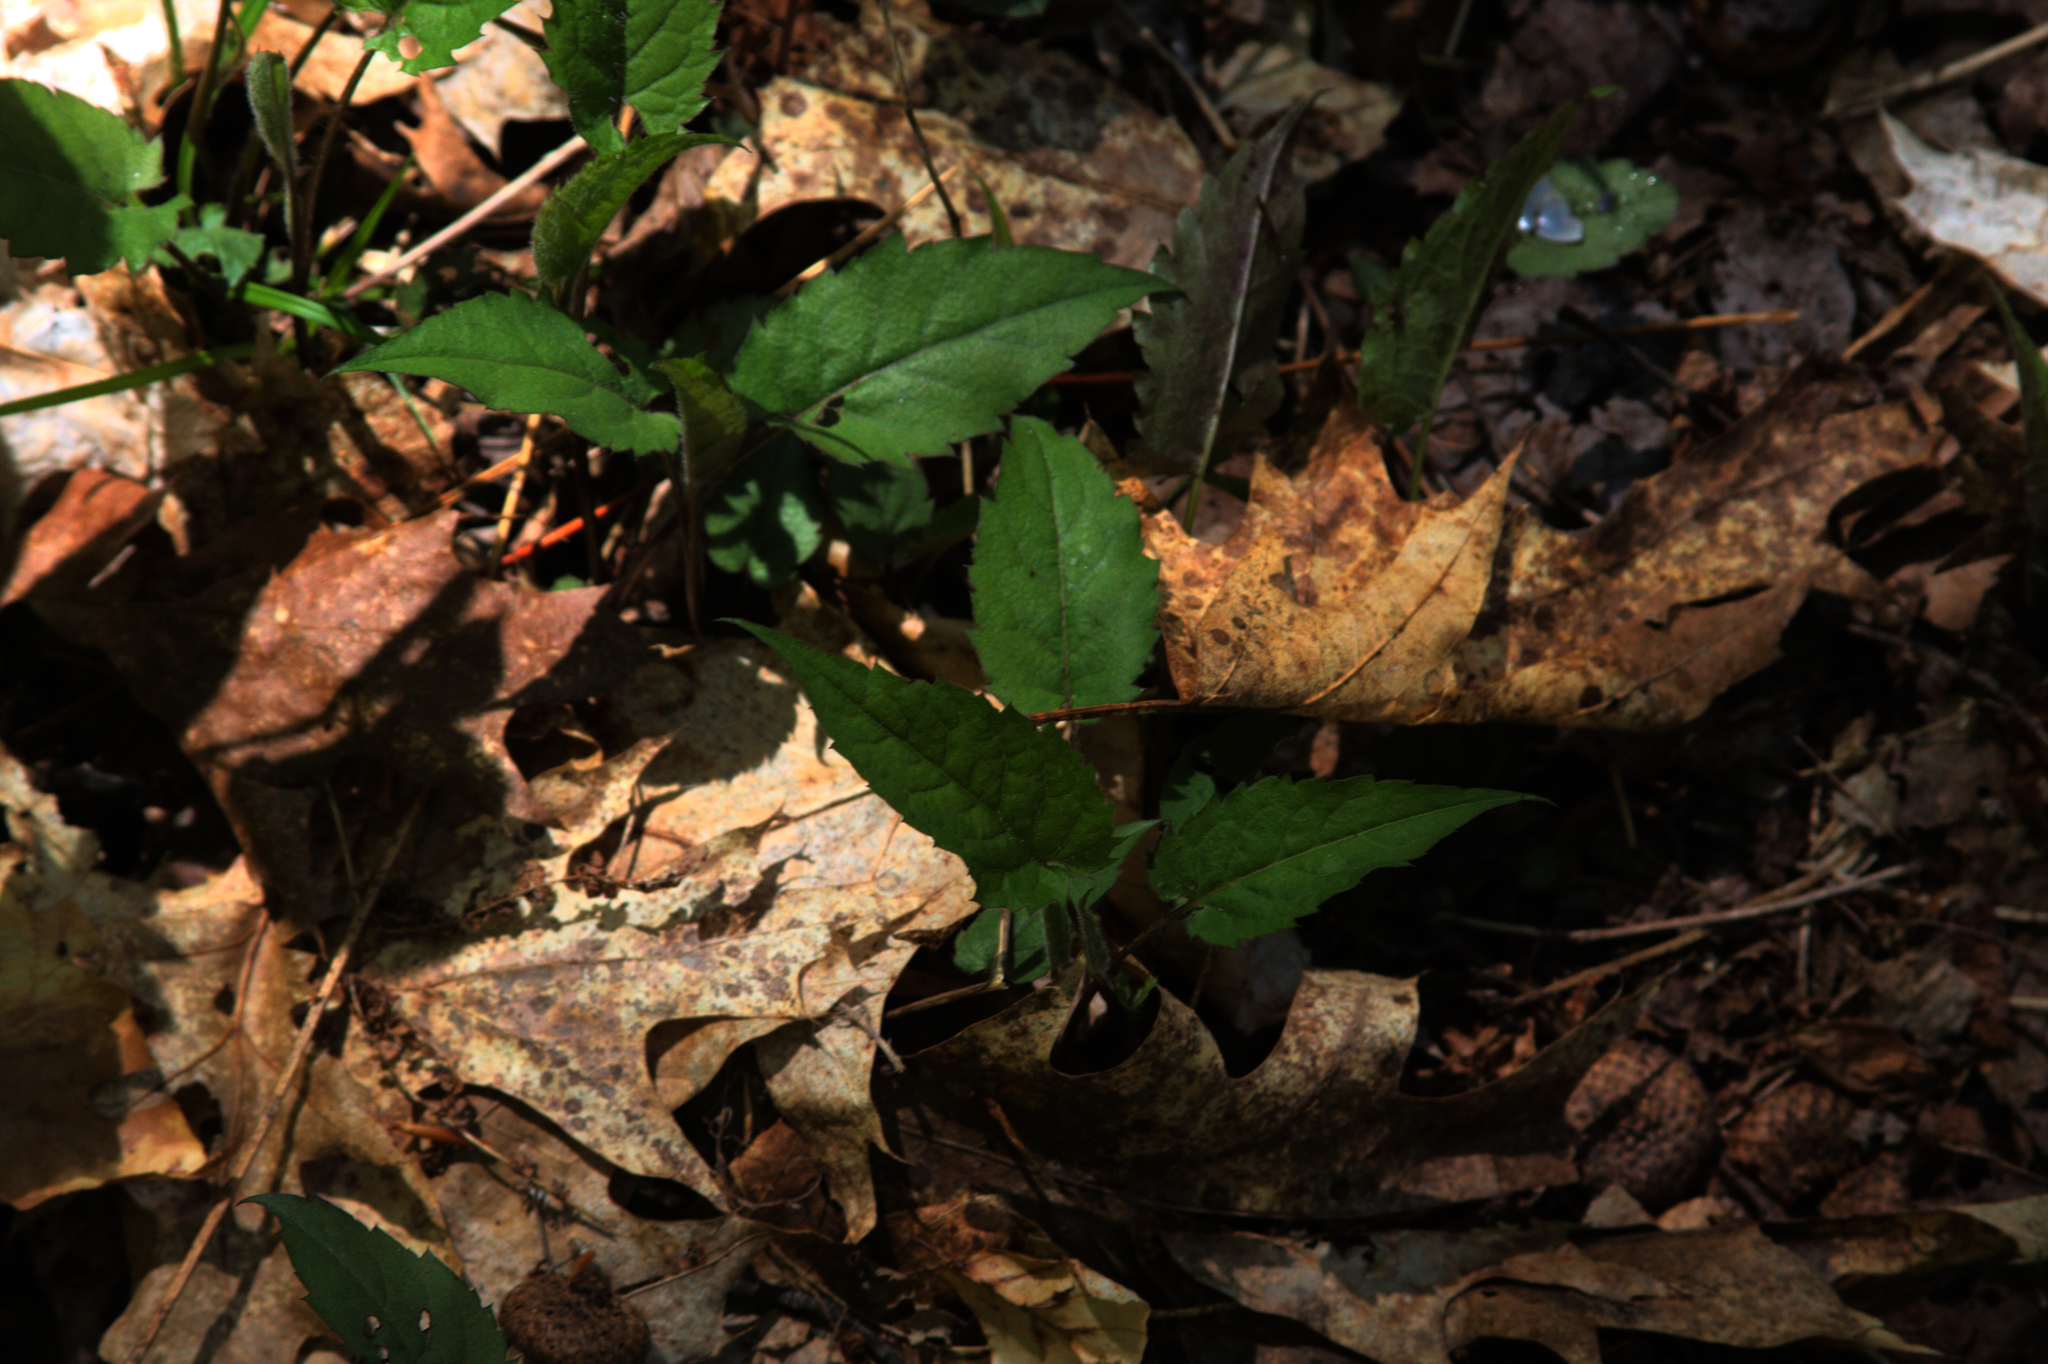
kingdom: Plantae
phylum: Tracheophyta
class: Magnoliopsida
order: Asterales
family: Asteraceae
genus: Eurybia
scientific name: Eurybia divaricata
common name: White wood aster
